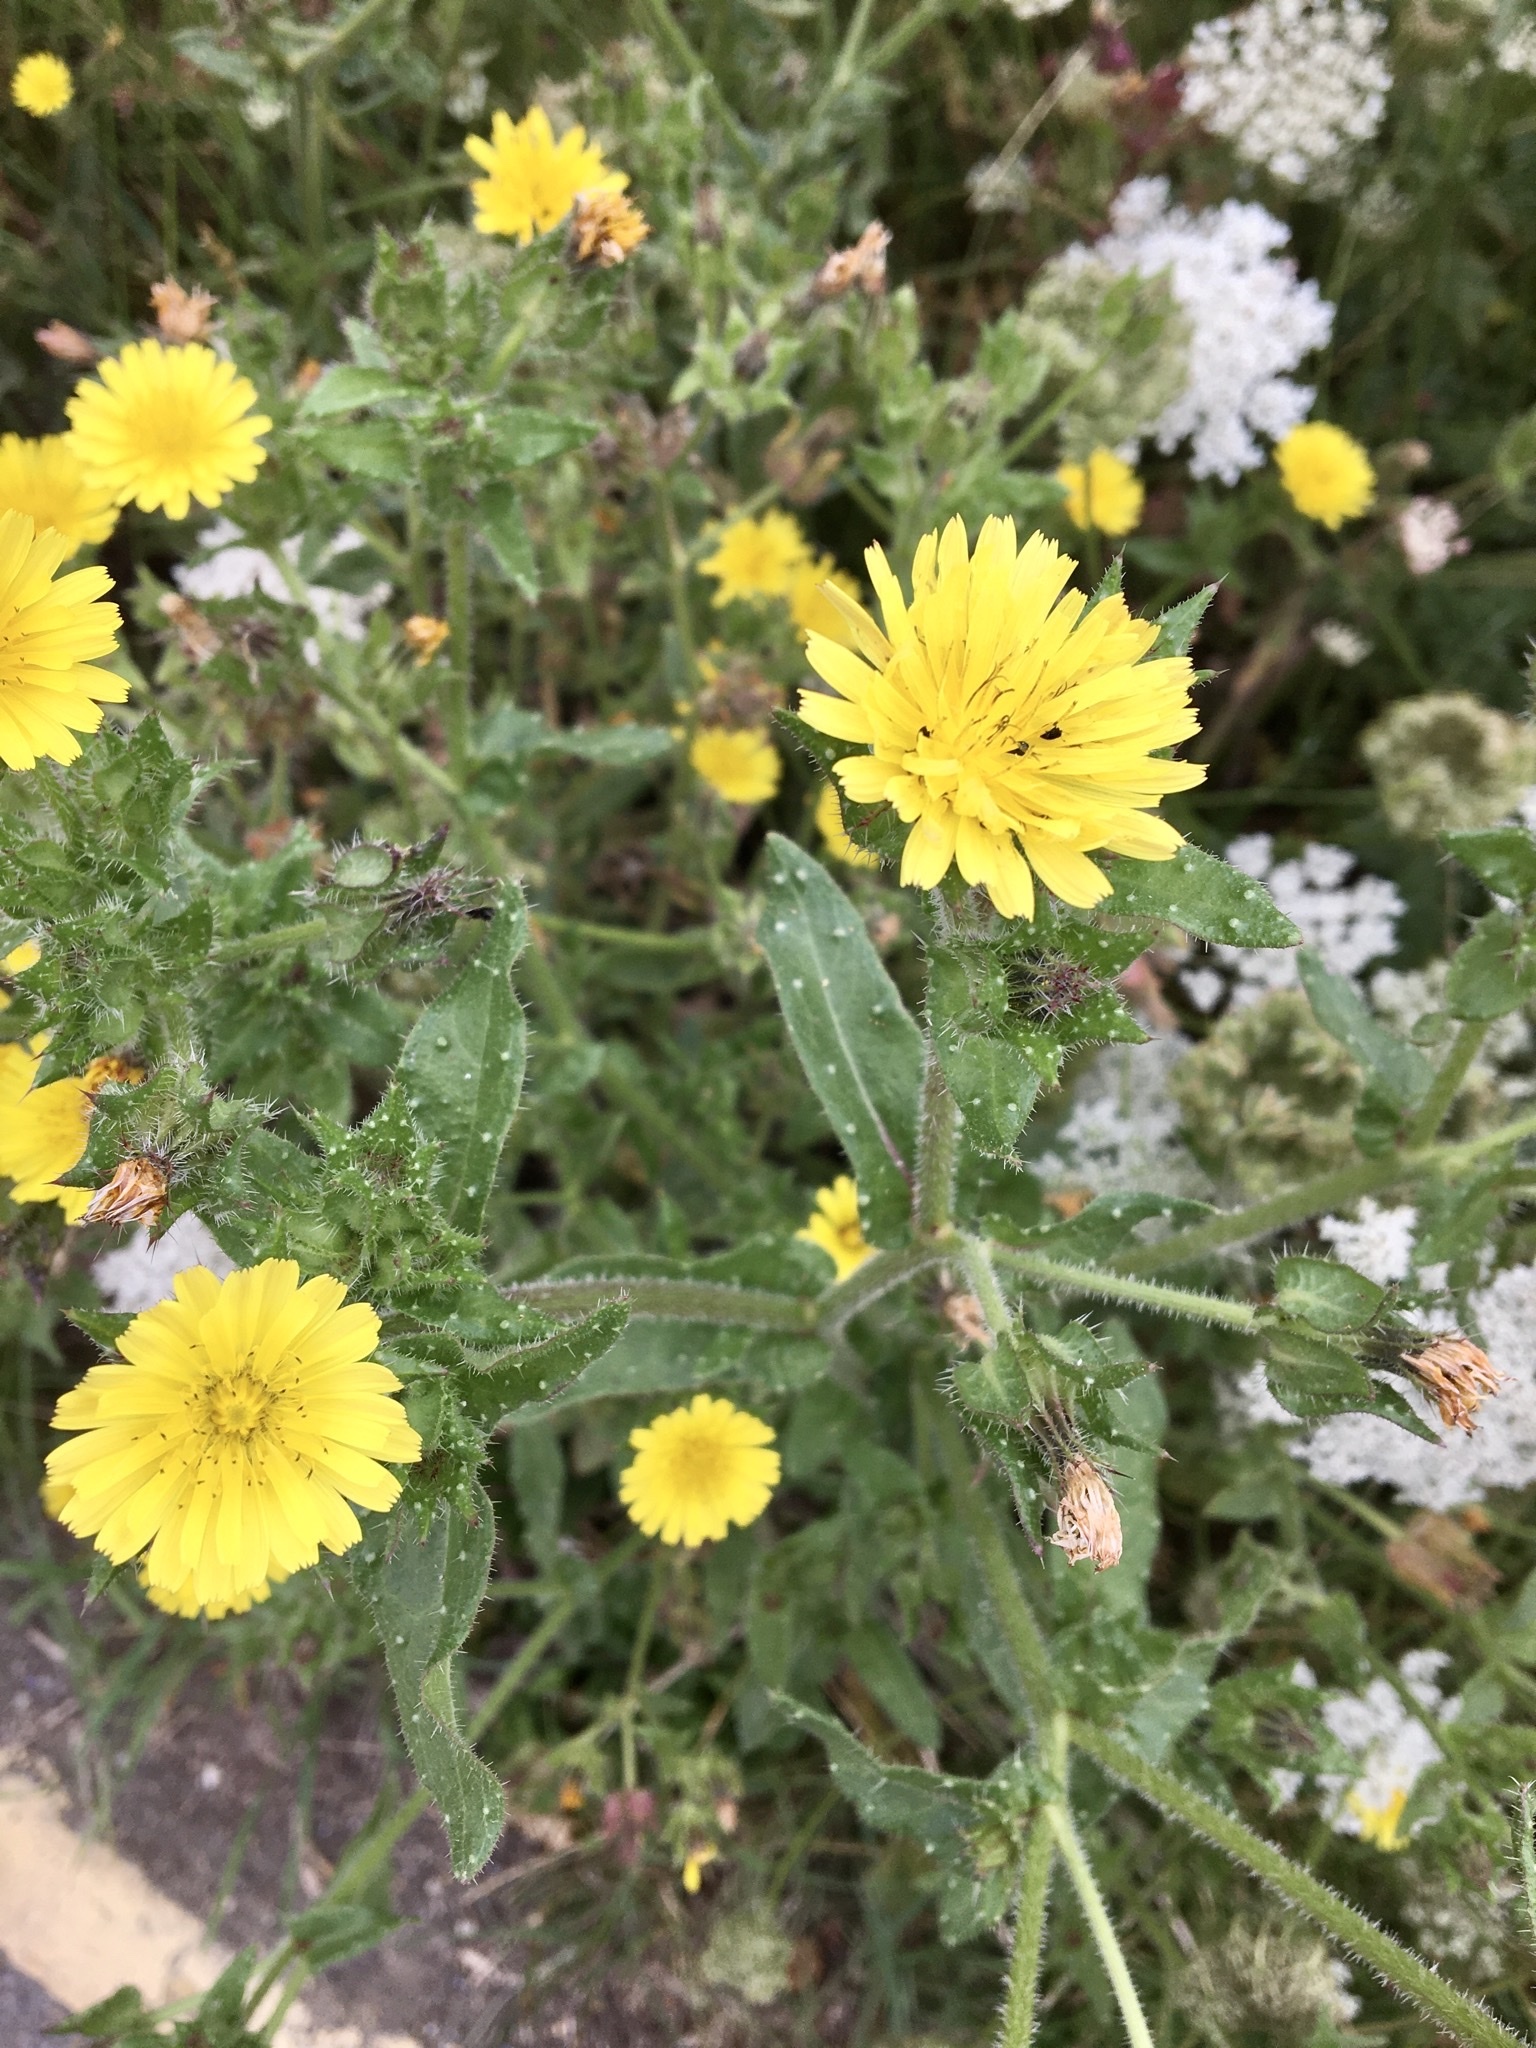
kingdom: Plantae
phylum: Tracheophyta
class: Magnoliopsida
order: Asterales
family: Asteraceae
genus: Helminthotheca
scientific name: Helminthotheca echioides
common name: Ox-tongue
